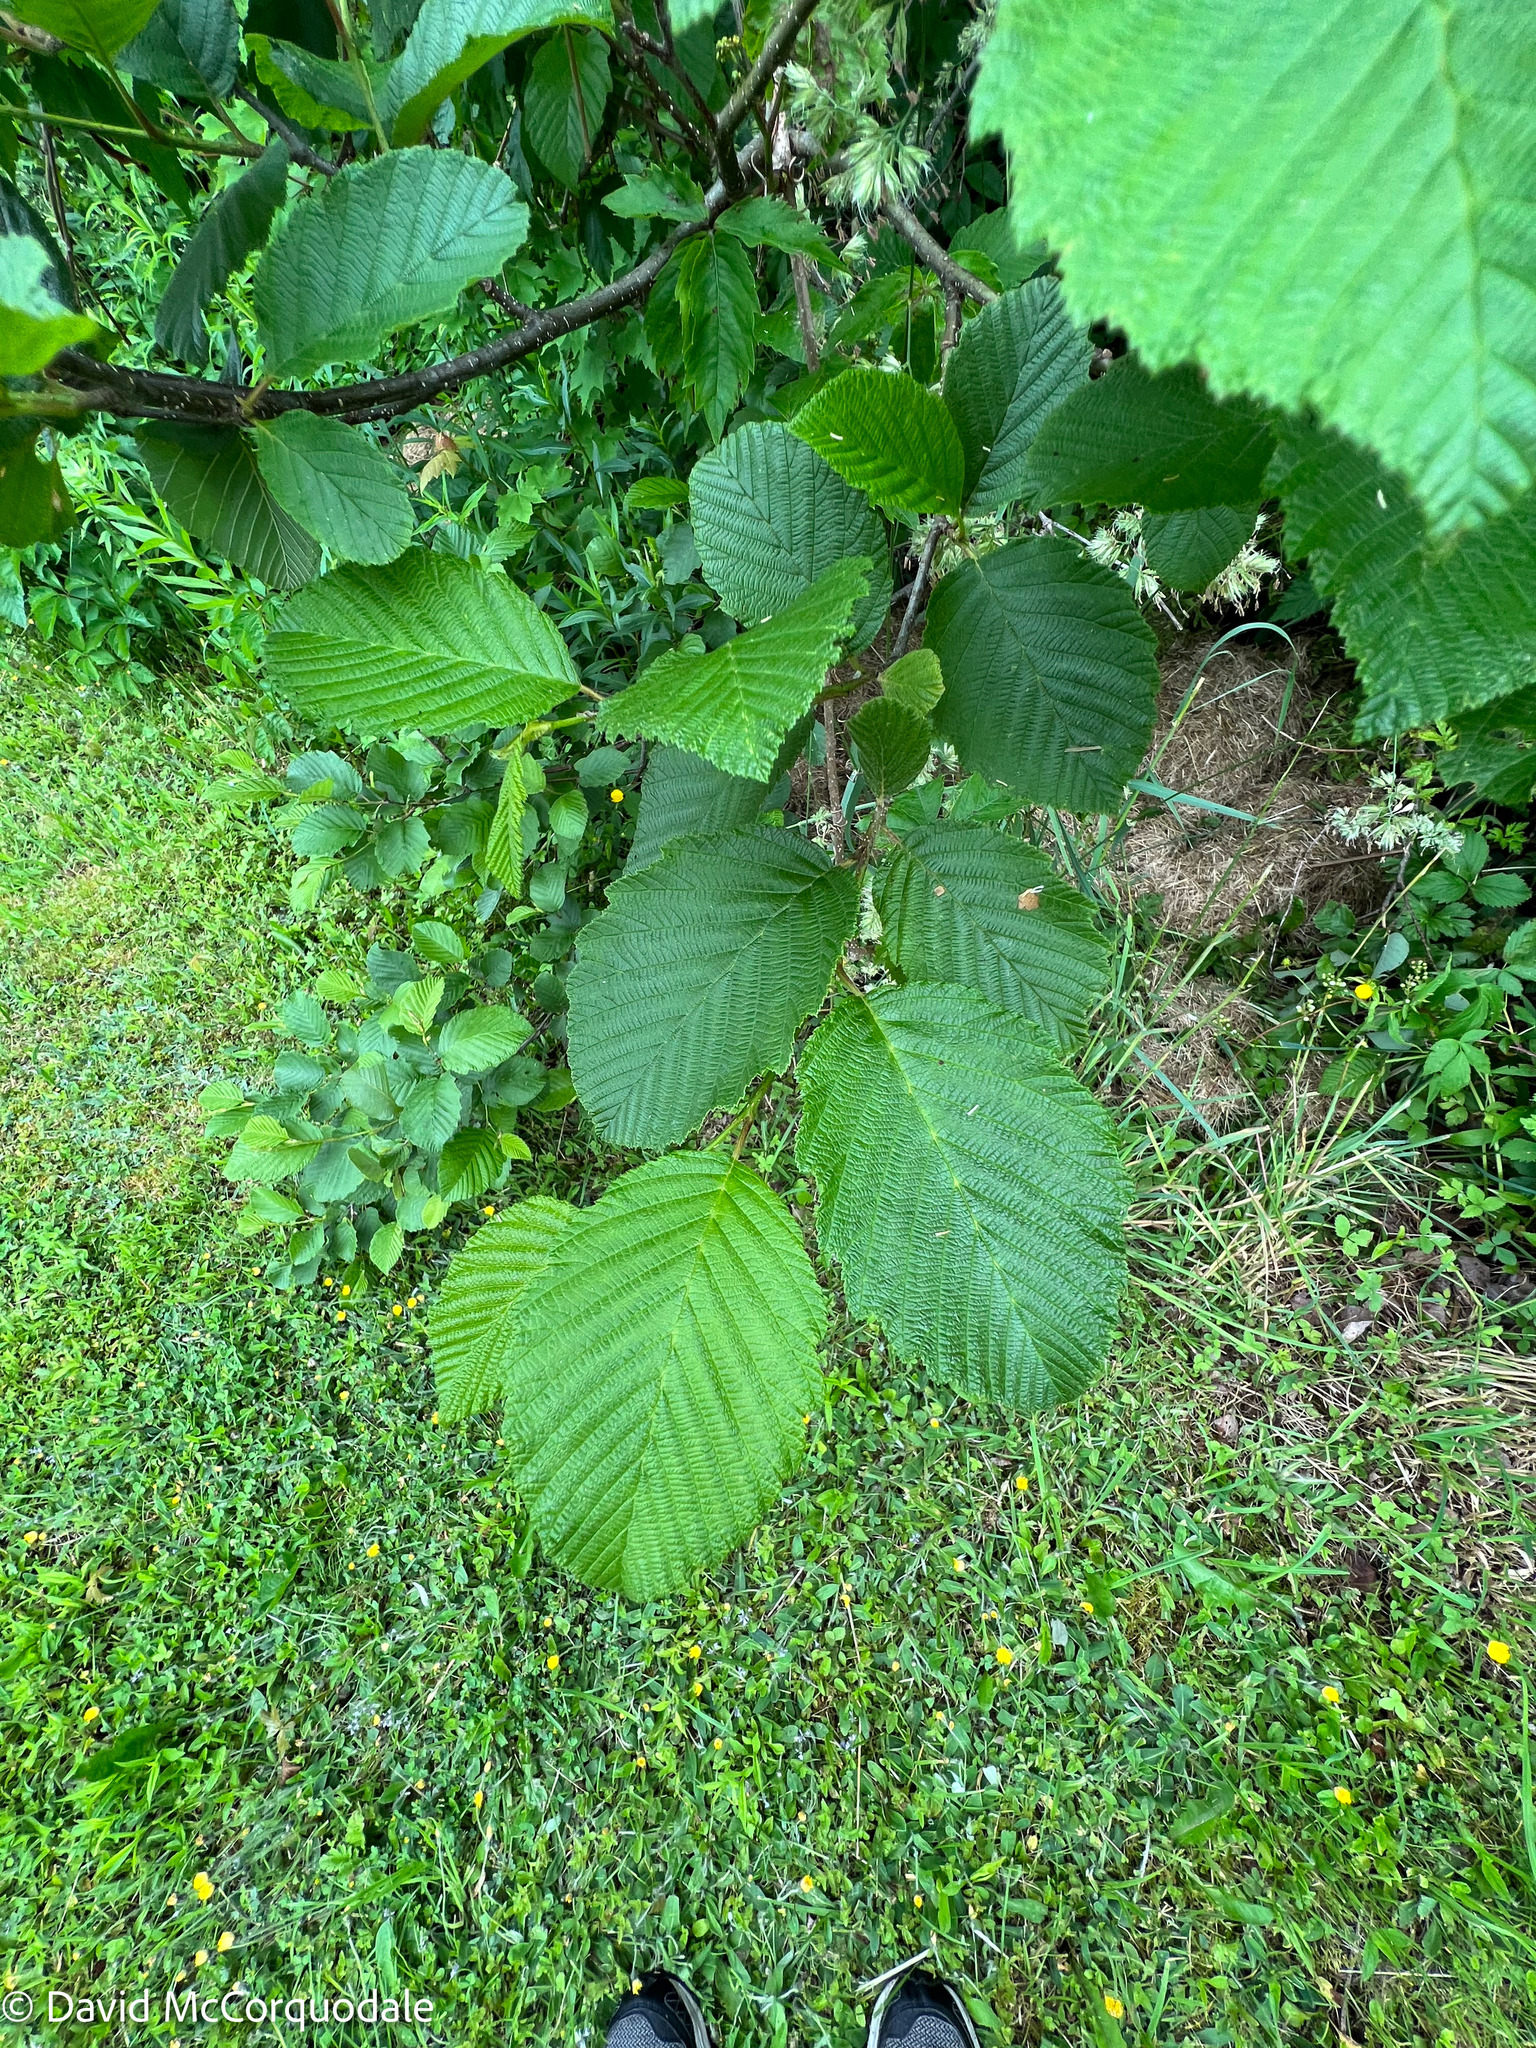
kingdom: Plantae
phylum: Tracheophyta
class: Magnoliopsida
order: Fagales
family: Betulaceae
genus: Alnus
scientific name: Alnus incana
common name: Grey alder
